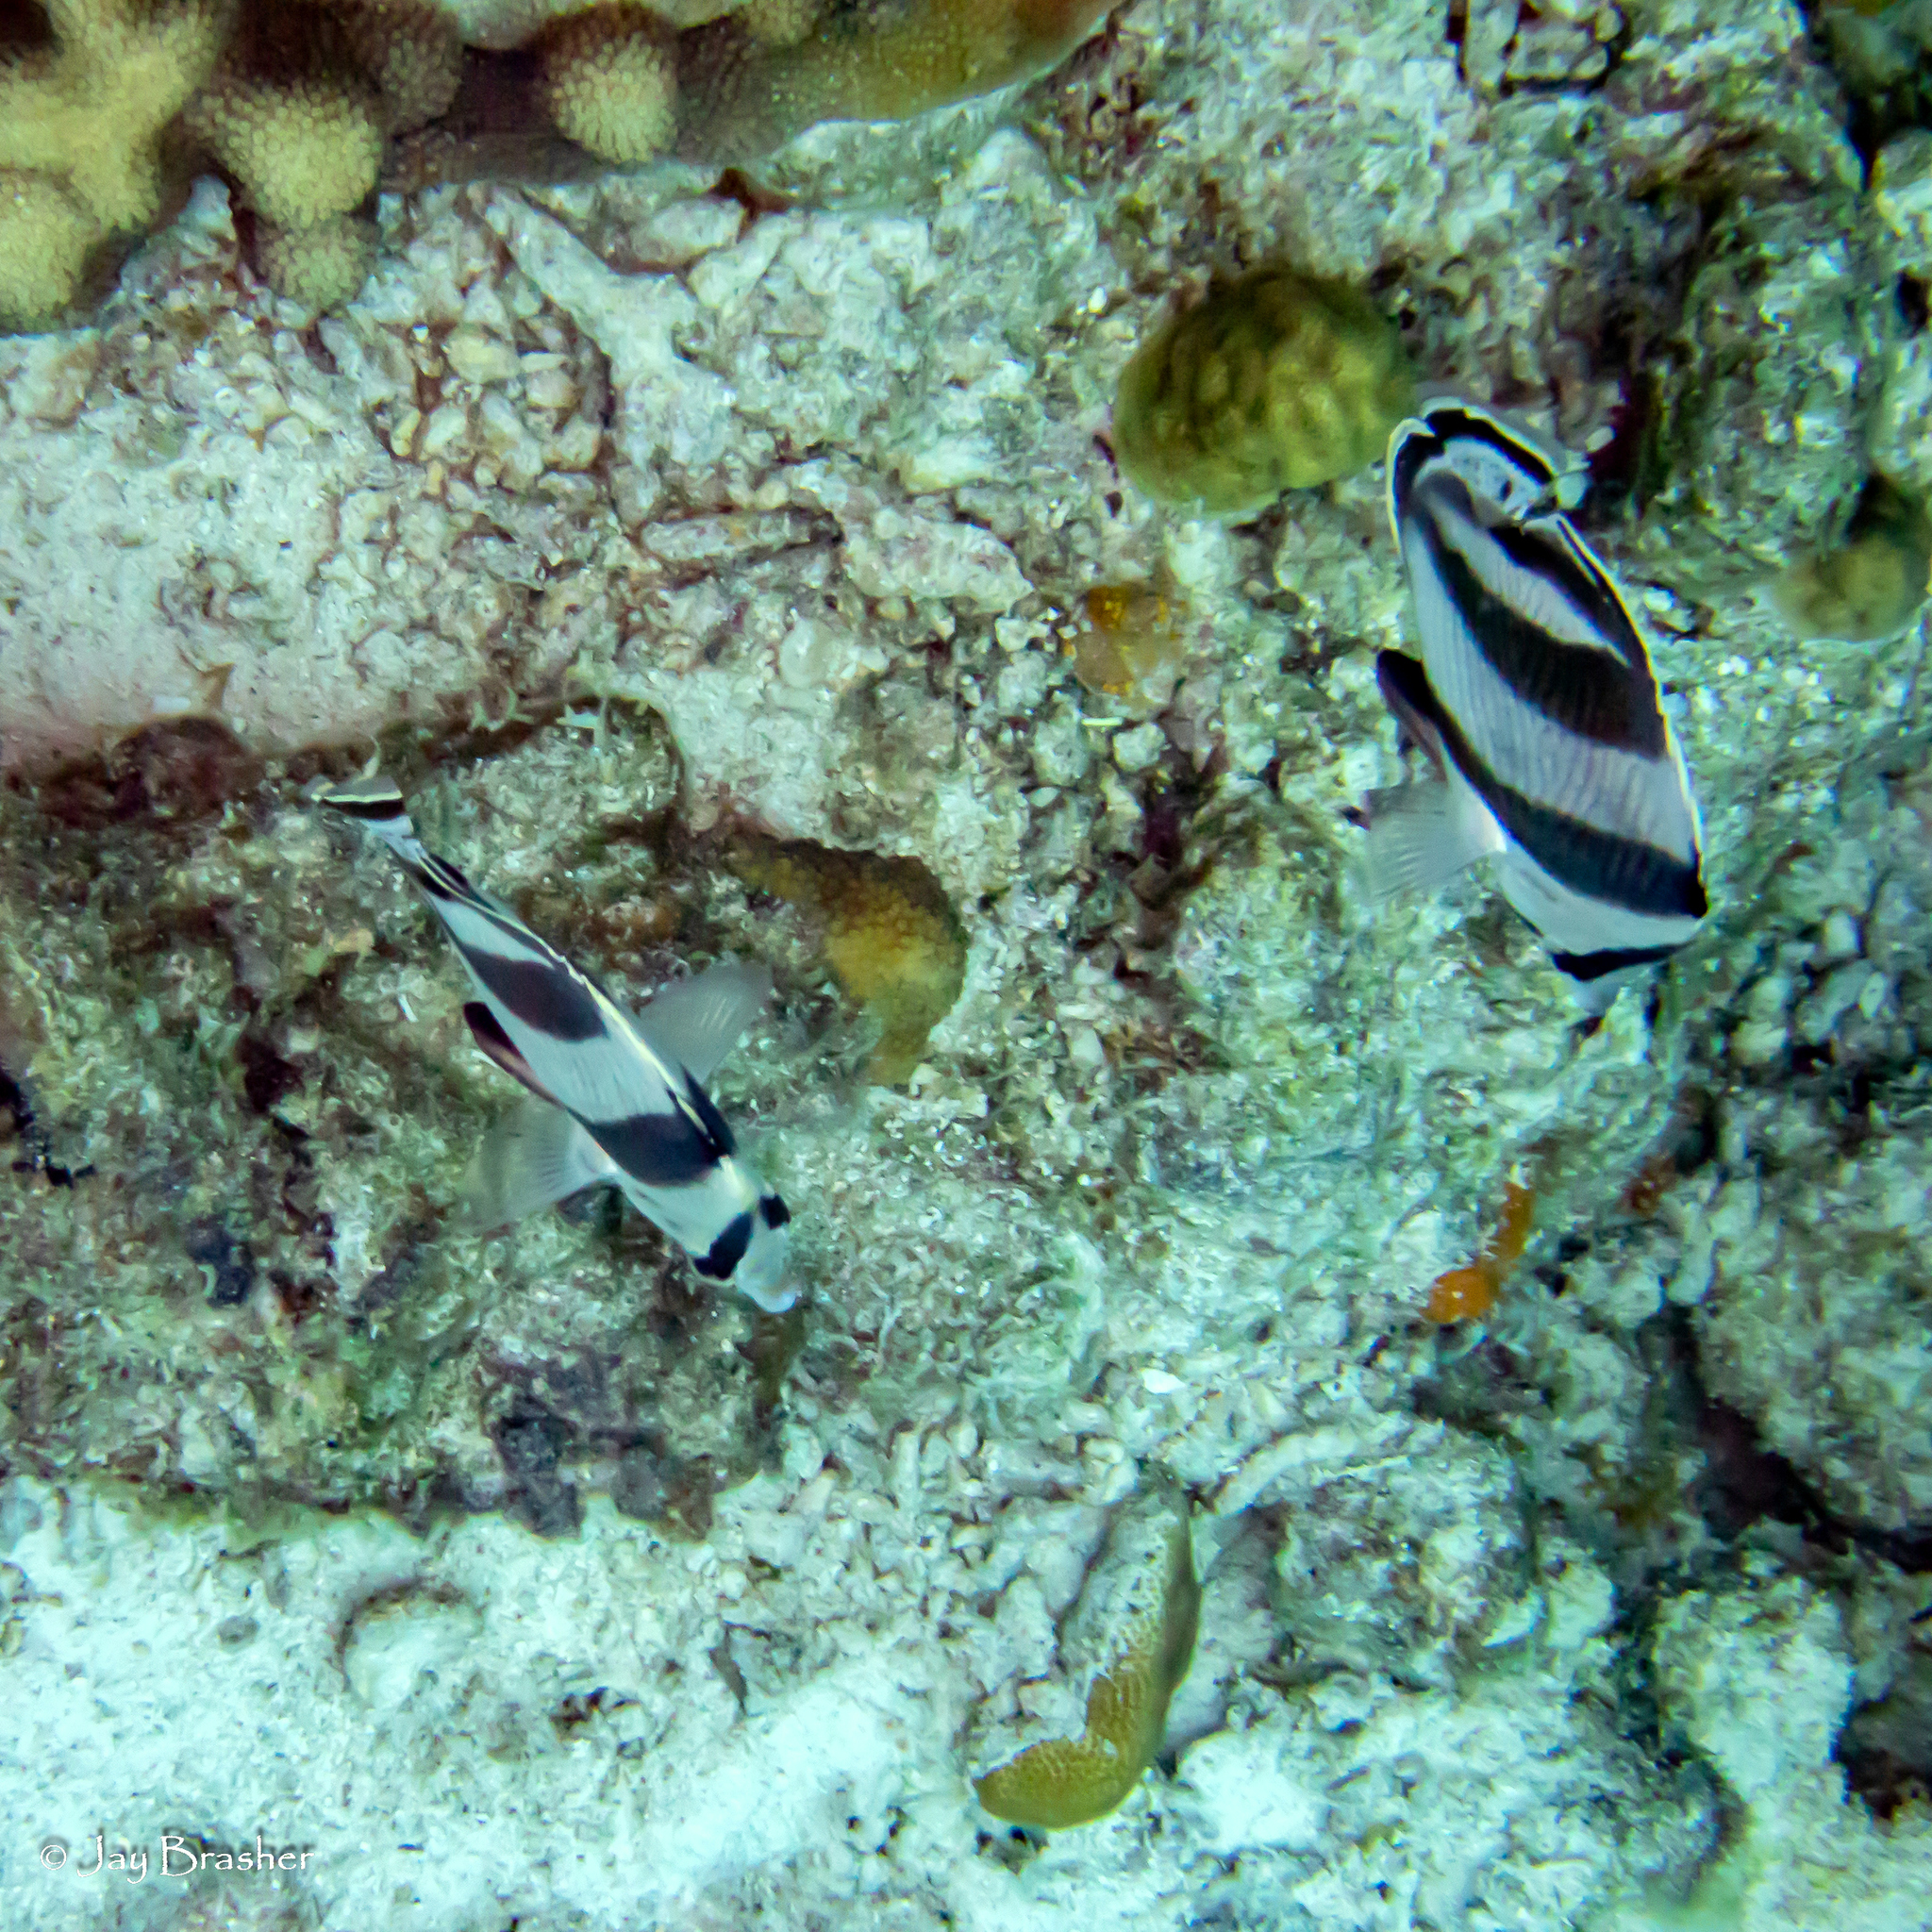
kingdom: Animalia
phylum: Chordata
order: Perciformes
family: Chaetodontidae
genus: Chaetodon
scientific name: Chaetodon striatus
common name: Banded butterflyfish
